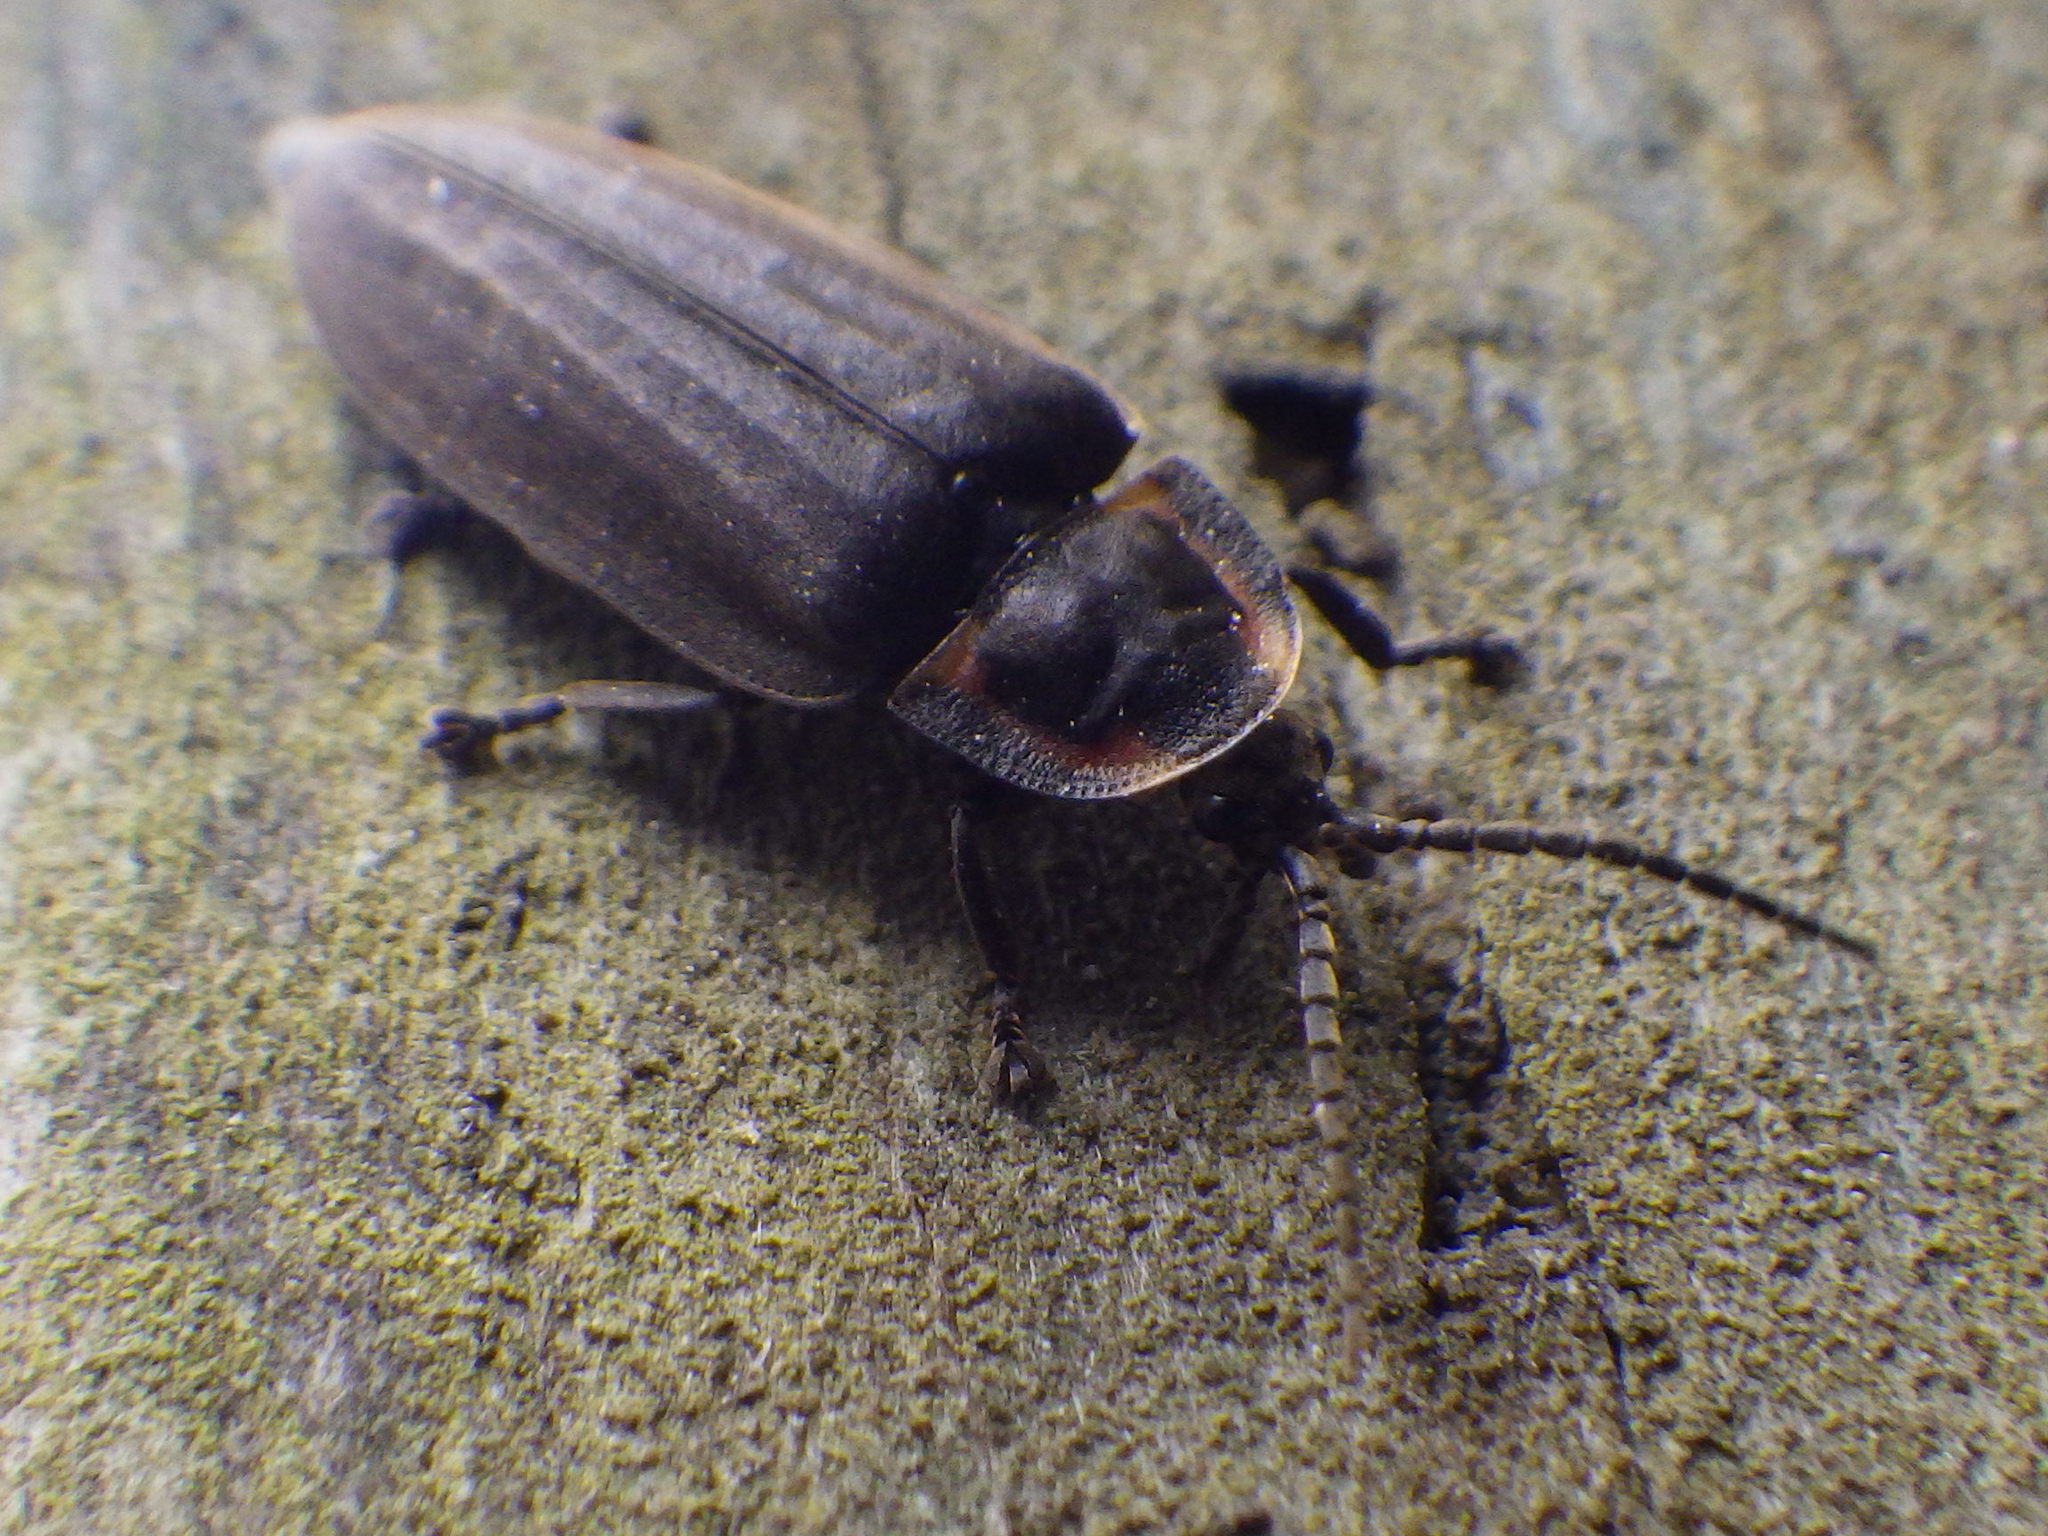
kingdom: Animalia
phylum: Arthropoda
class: Insecta
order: Coleoptera
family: Lampyridae
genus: Photinus
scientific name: Photinus corrusca
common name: Winter firefly
